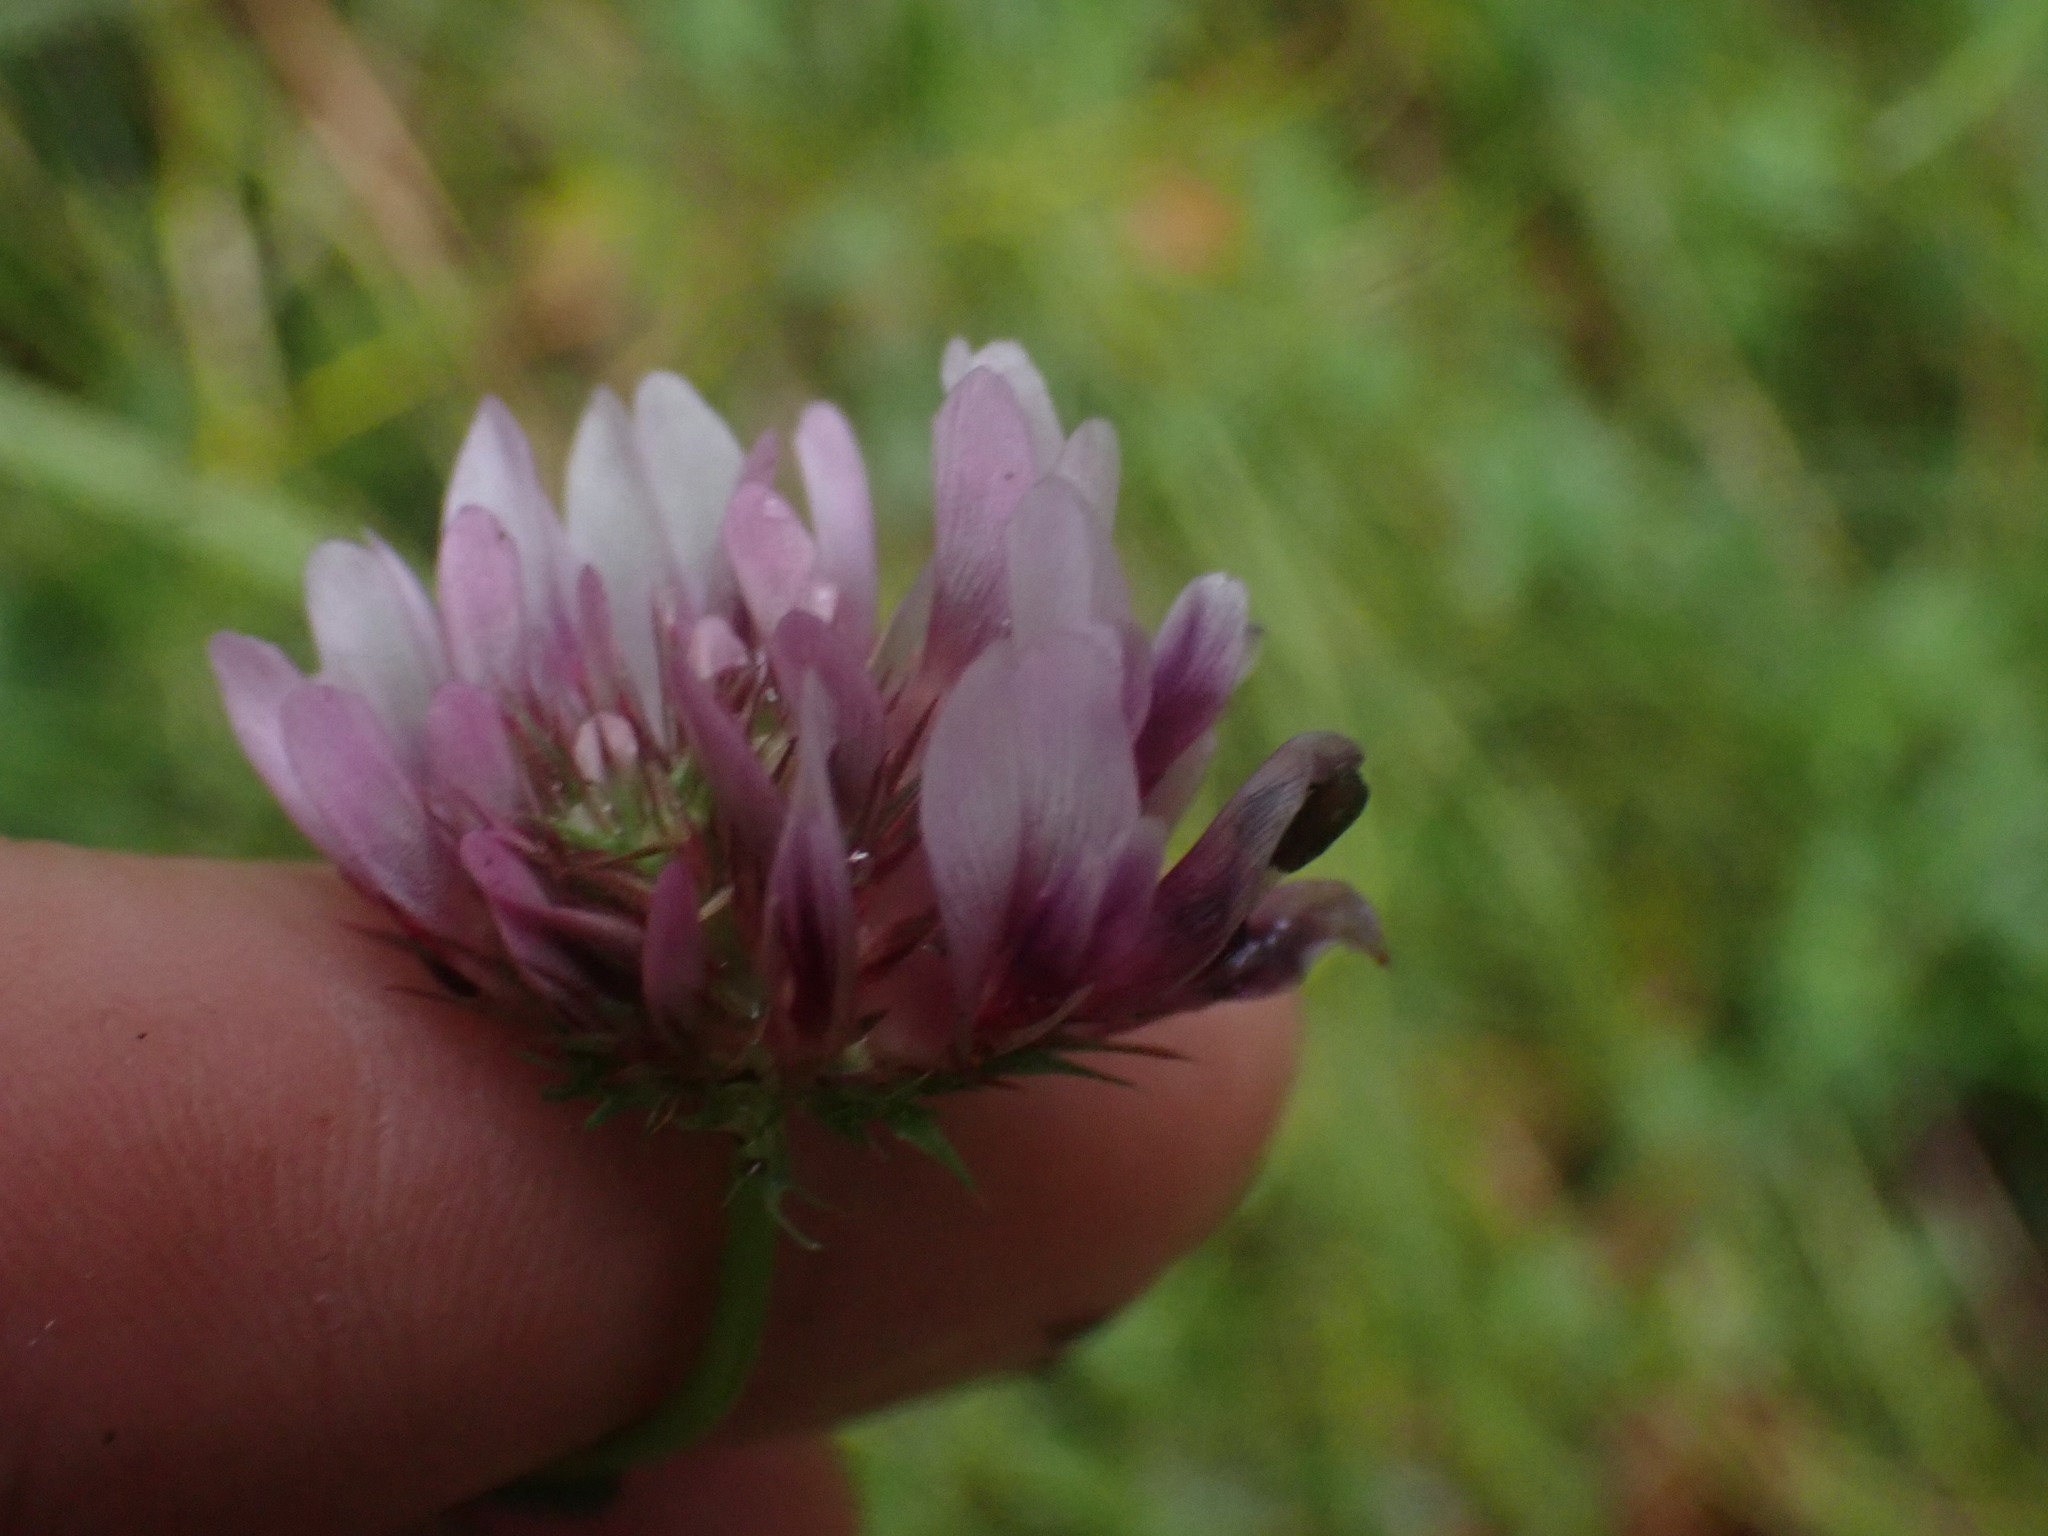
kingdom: Plantae
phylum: Tracheophyta
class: Magnoliopsida
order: Fabales
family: Fabaceae
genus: Trifolium
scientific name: Trifolium wormskioldii
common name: Springbank clover
